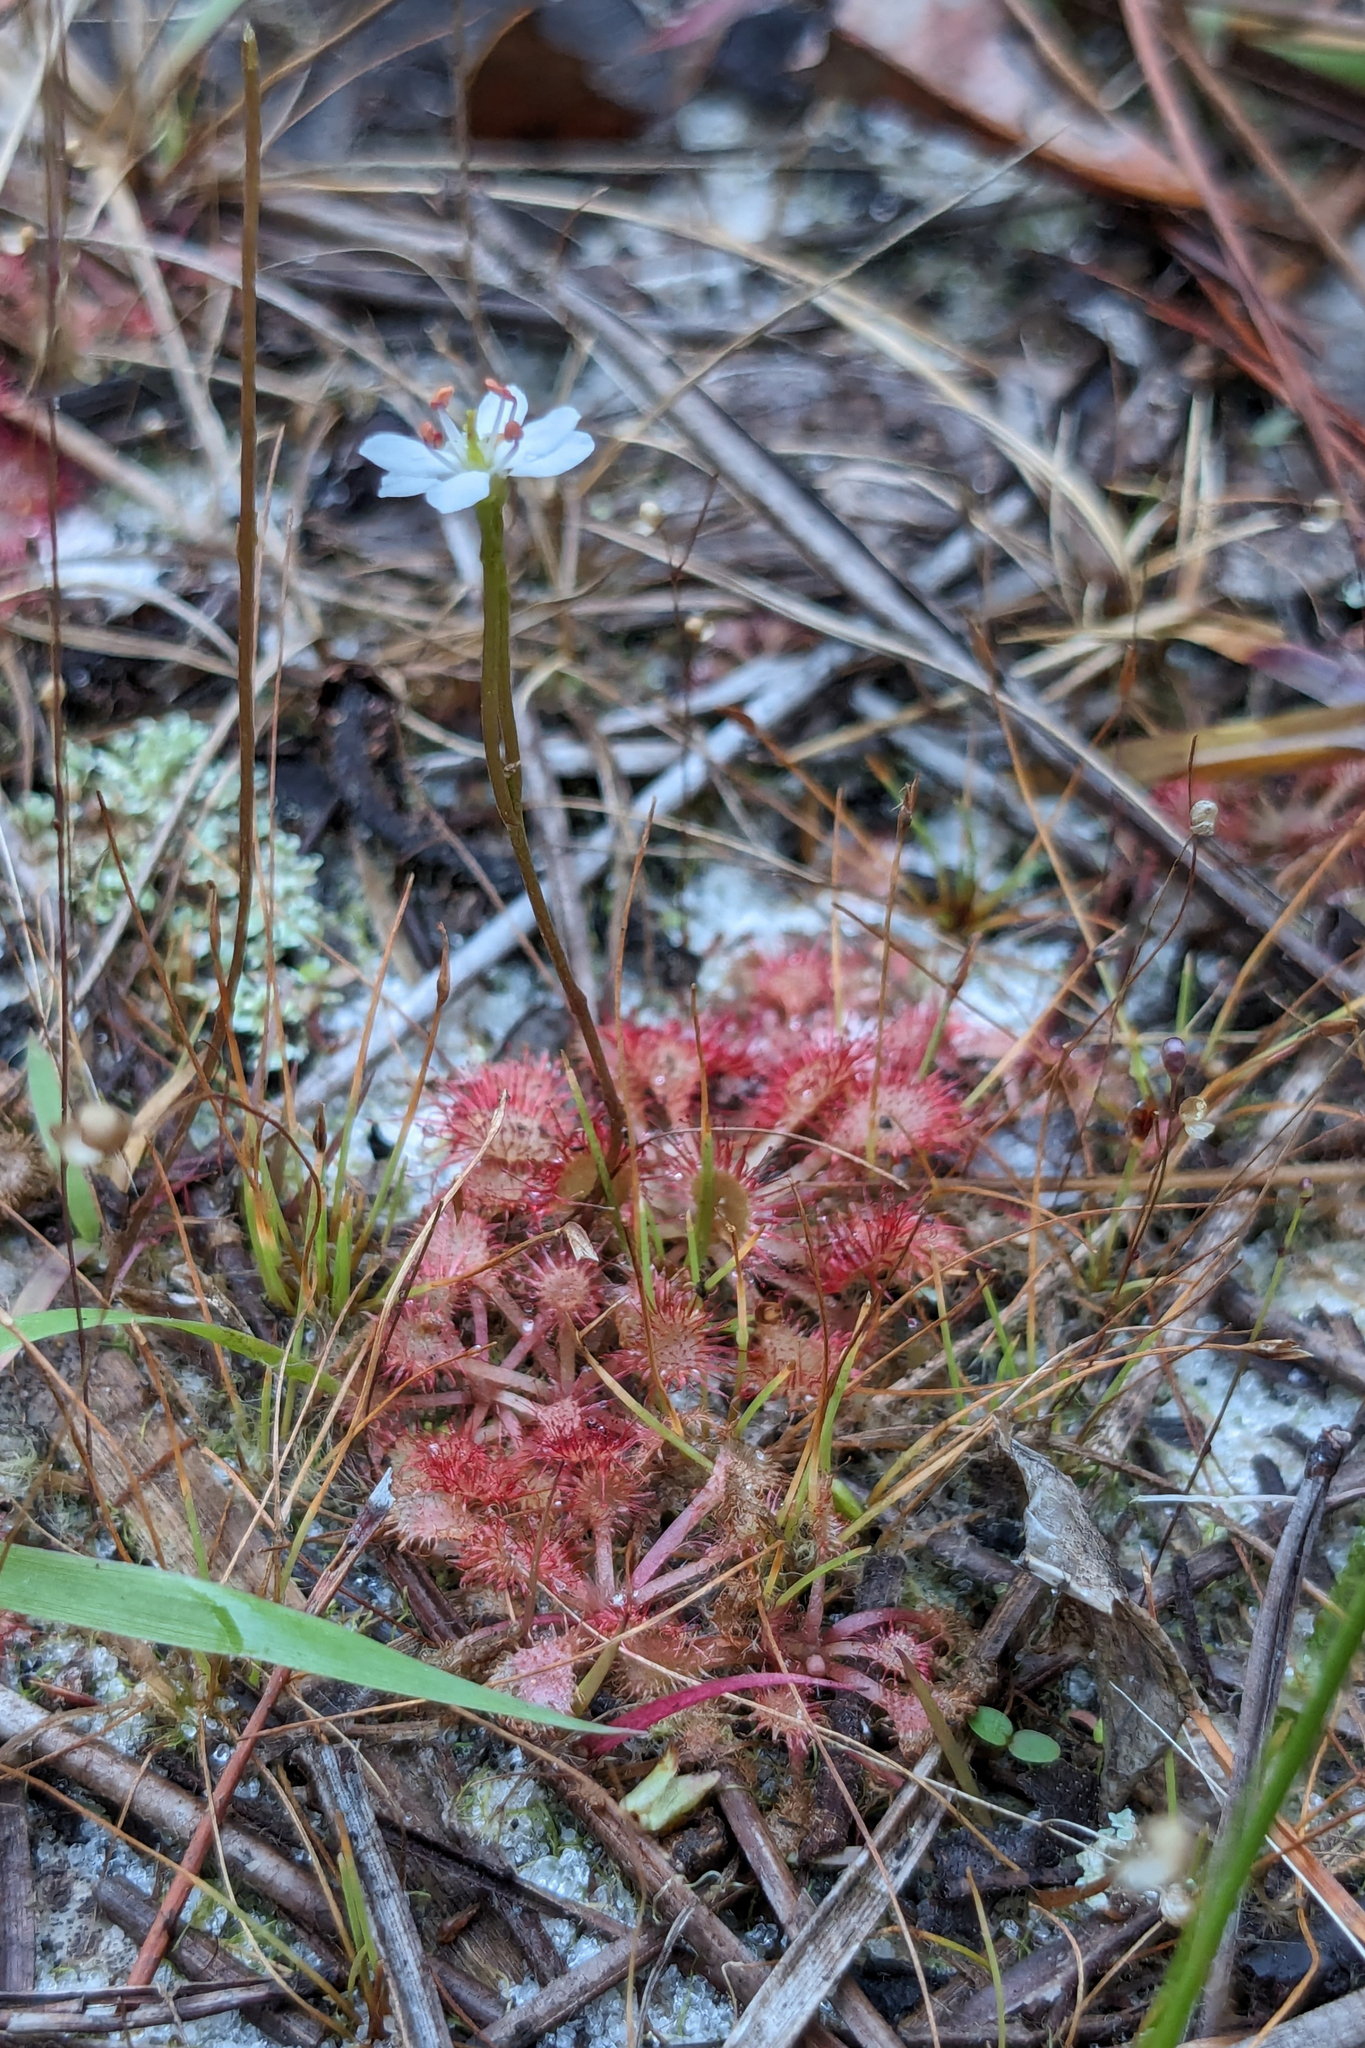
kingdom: Plantae
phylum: Tracheophyta
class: Magnoliopsida
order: Caryophyllales
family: Droseraceae
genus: Drosera
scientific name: Drosera capillaris
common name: Pink sundew
